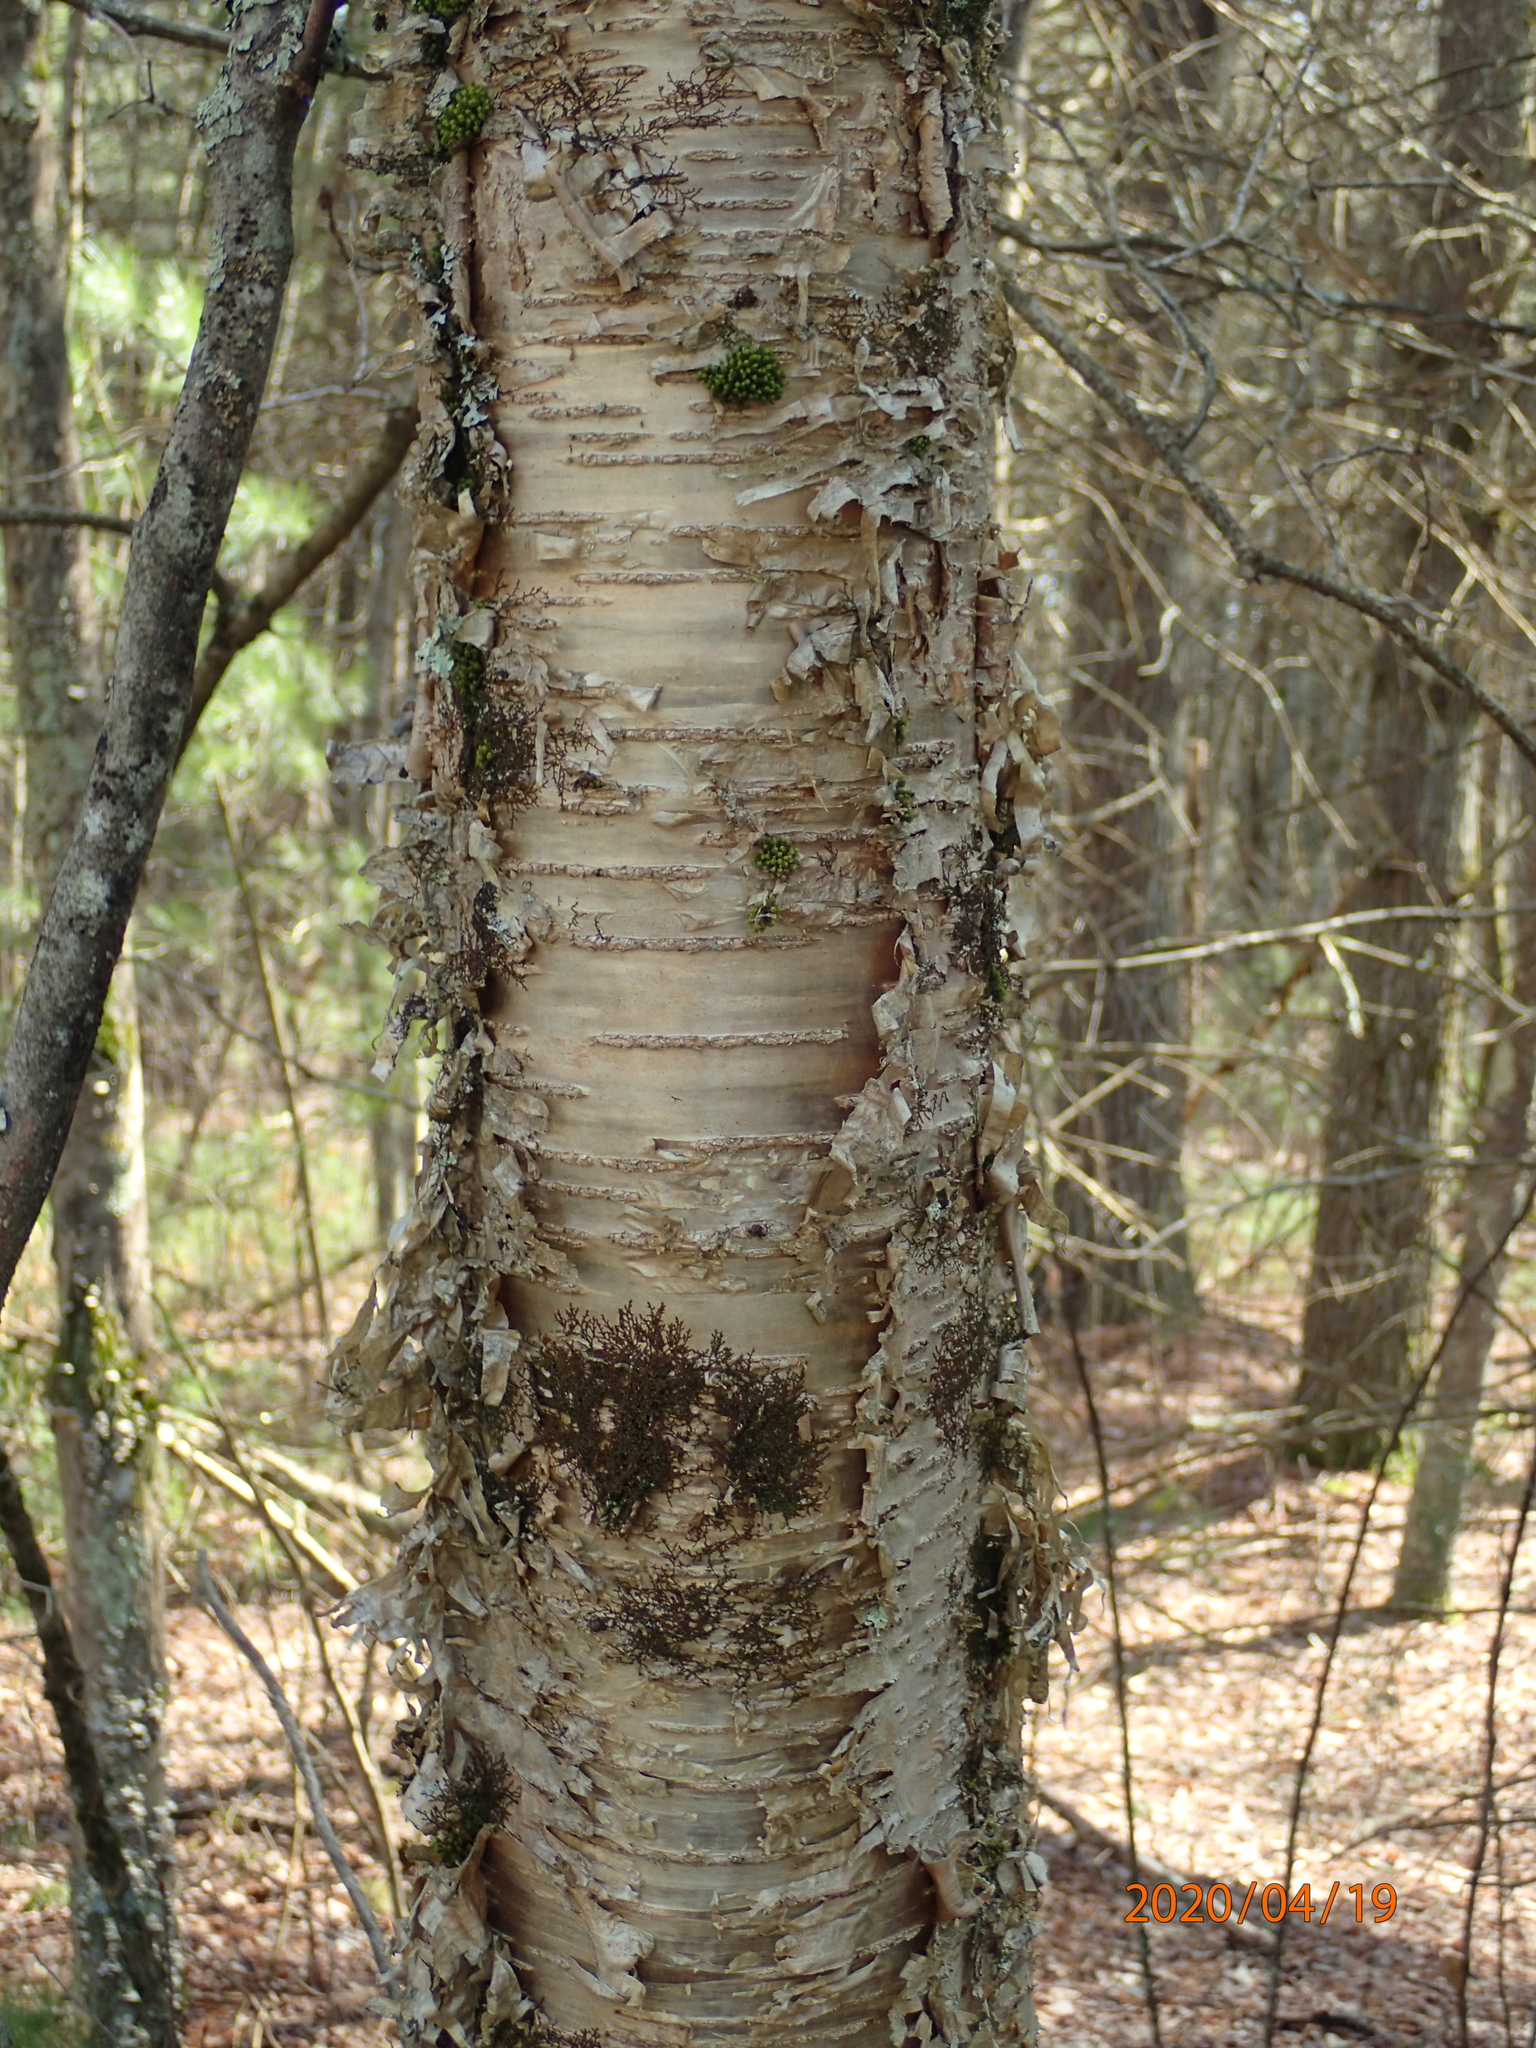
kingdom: Plantae
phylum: Tracheophyta
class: Magnoliopsida
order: Fagales
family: Betulaceae
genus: Betula
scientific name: Betula alleghaniensis
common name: Yellow birch
